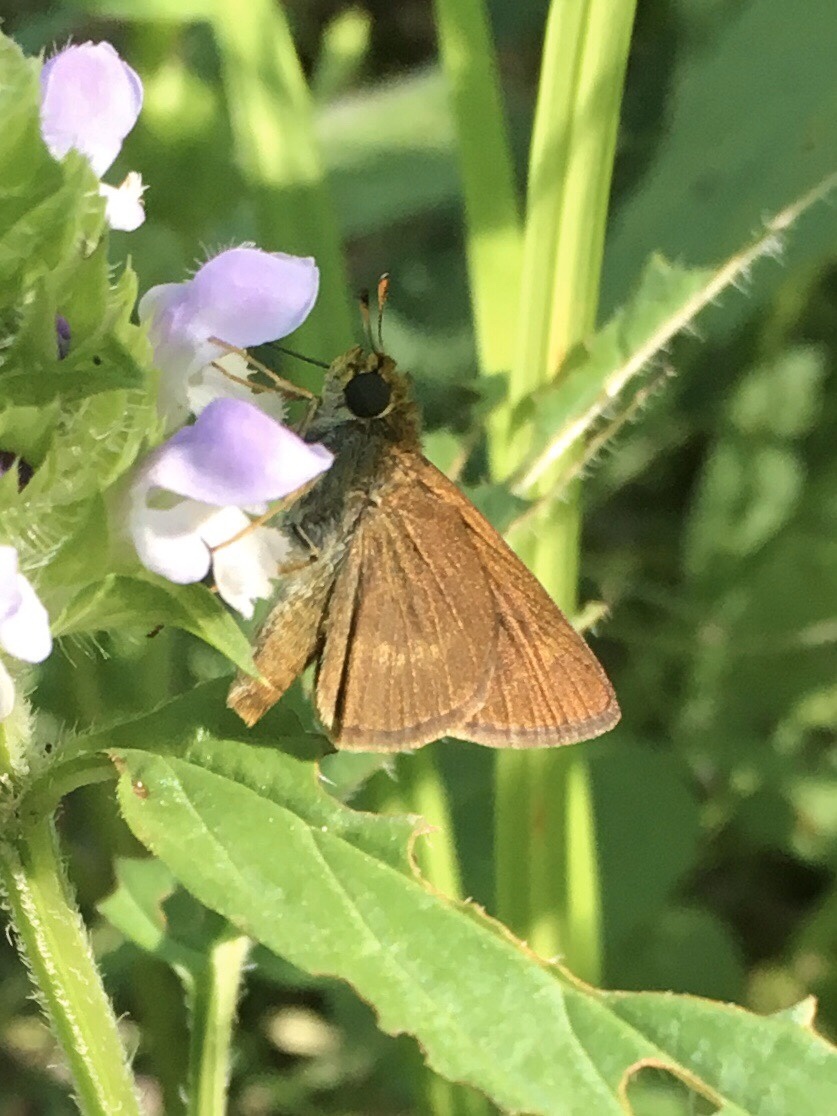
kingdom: Animalia
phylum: Arthropoda
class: Insecta
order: Lepidoptera
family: Hesperiidae
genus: Euphyes
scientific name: Euphyes vestris
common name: Dun skipper
